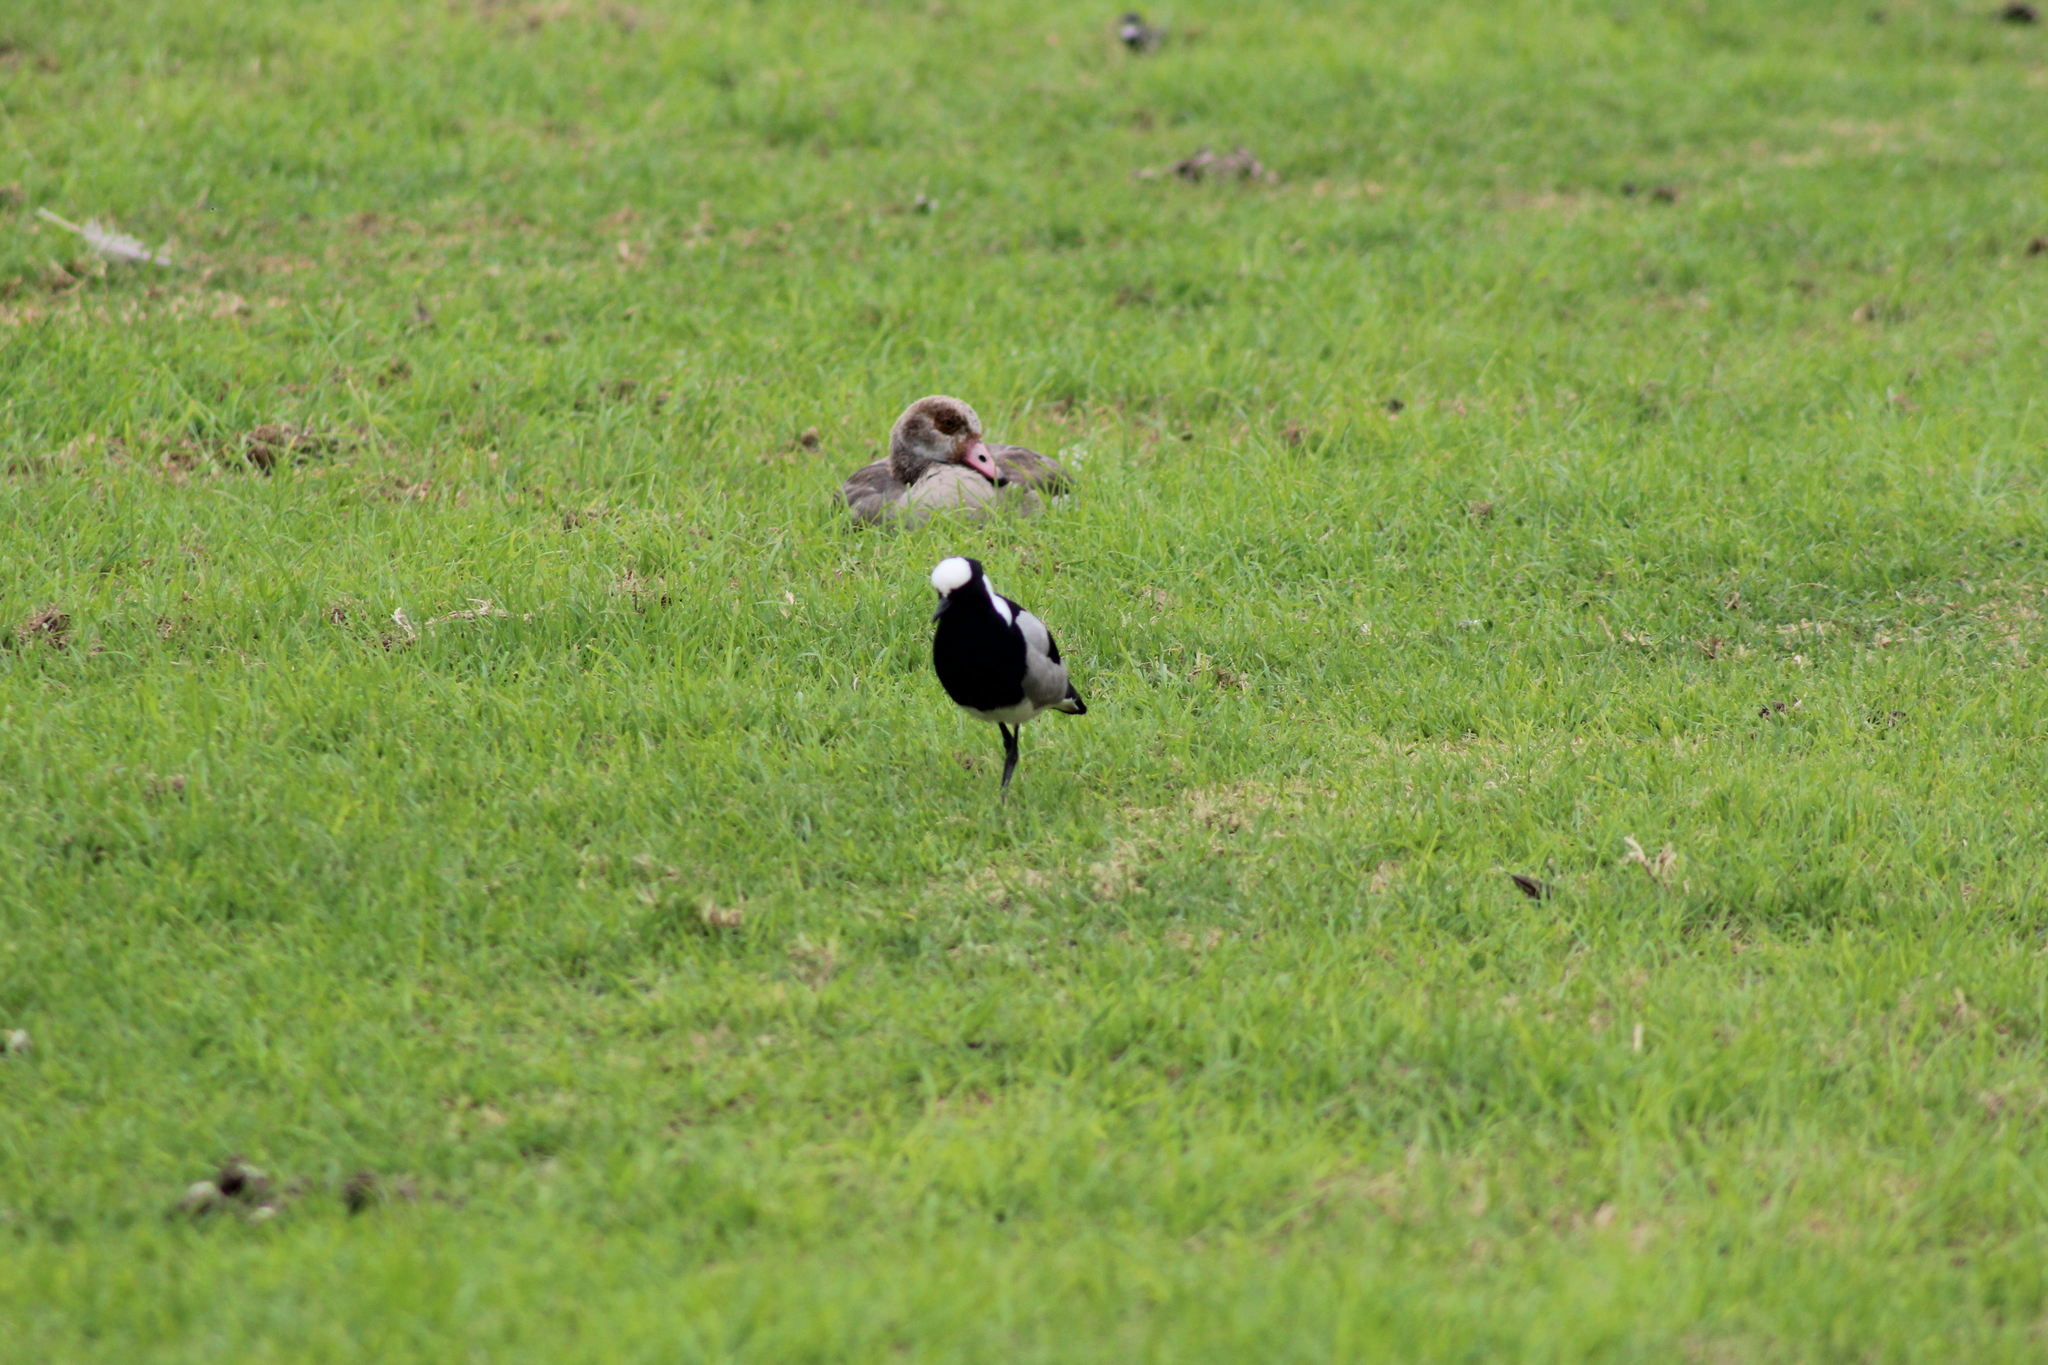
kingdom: Animalia
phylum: Chordata
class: Aves
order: Charadriiformes
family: Charadriidae
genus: Vanellus
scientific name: Vanellus armatus
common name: Blacksmith lapwing
